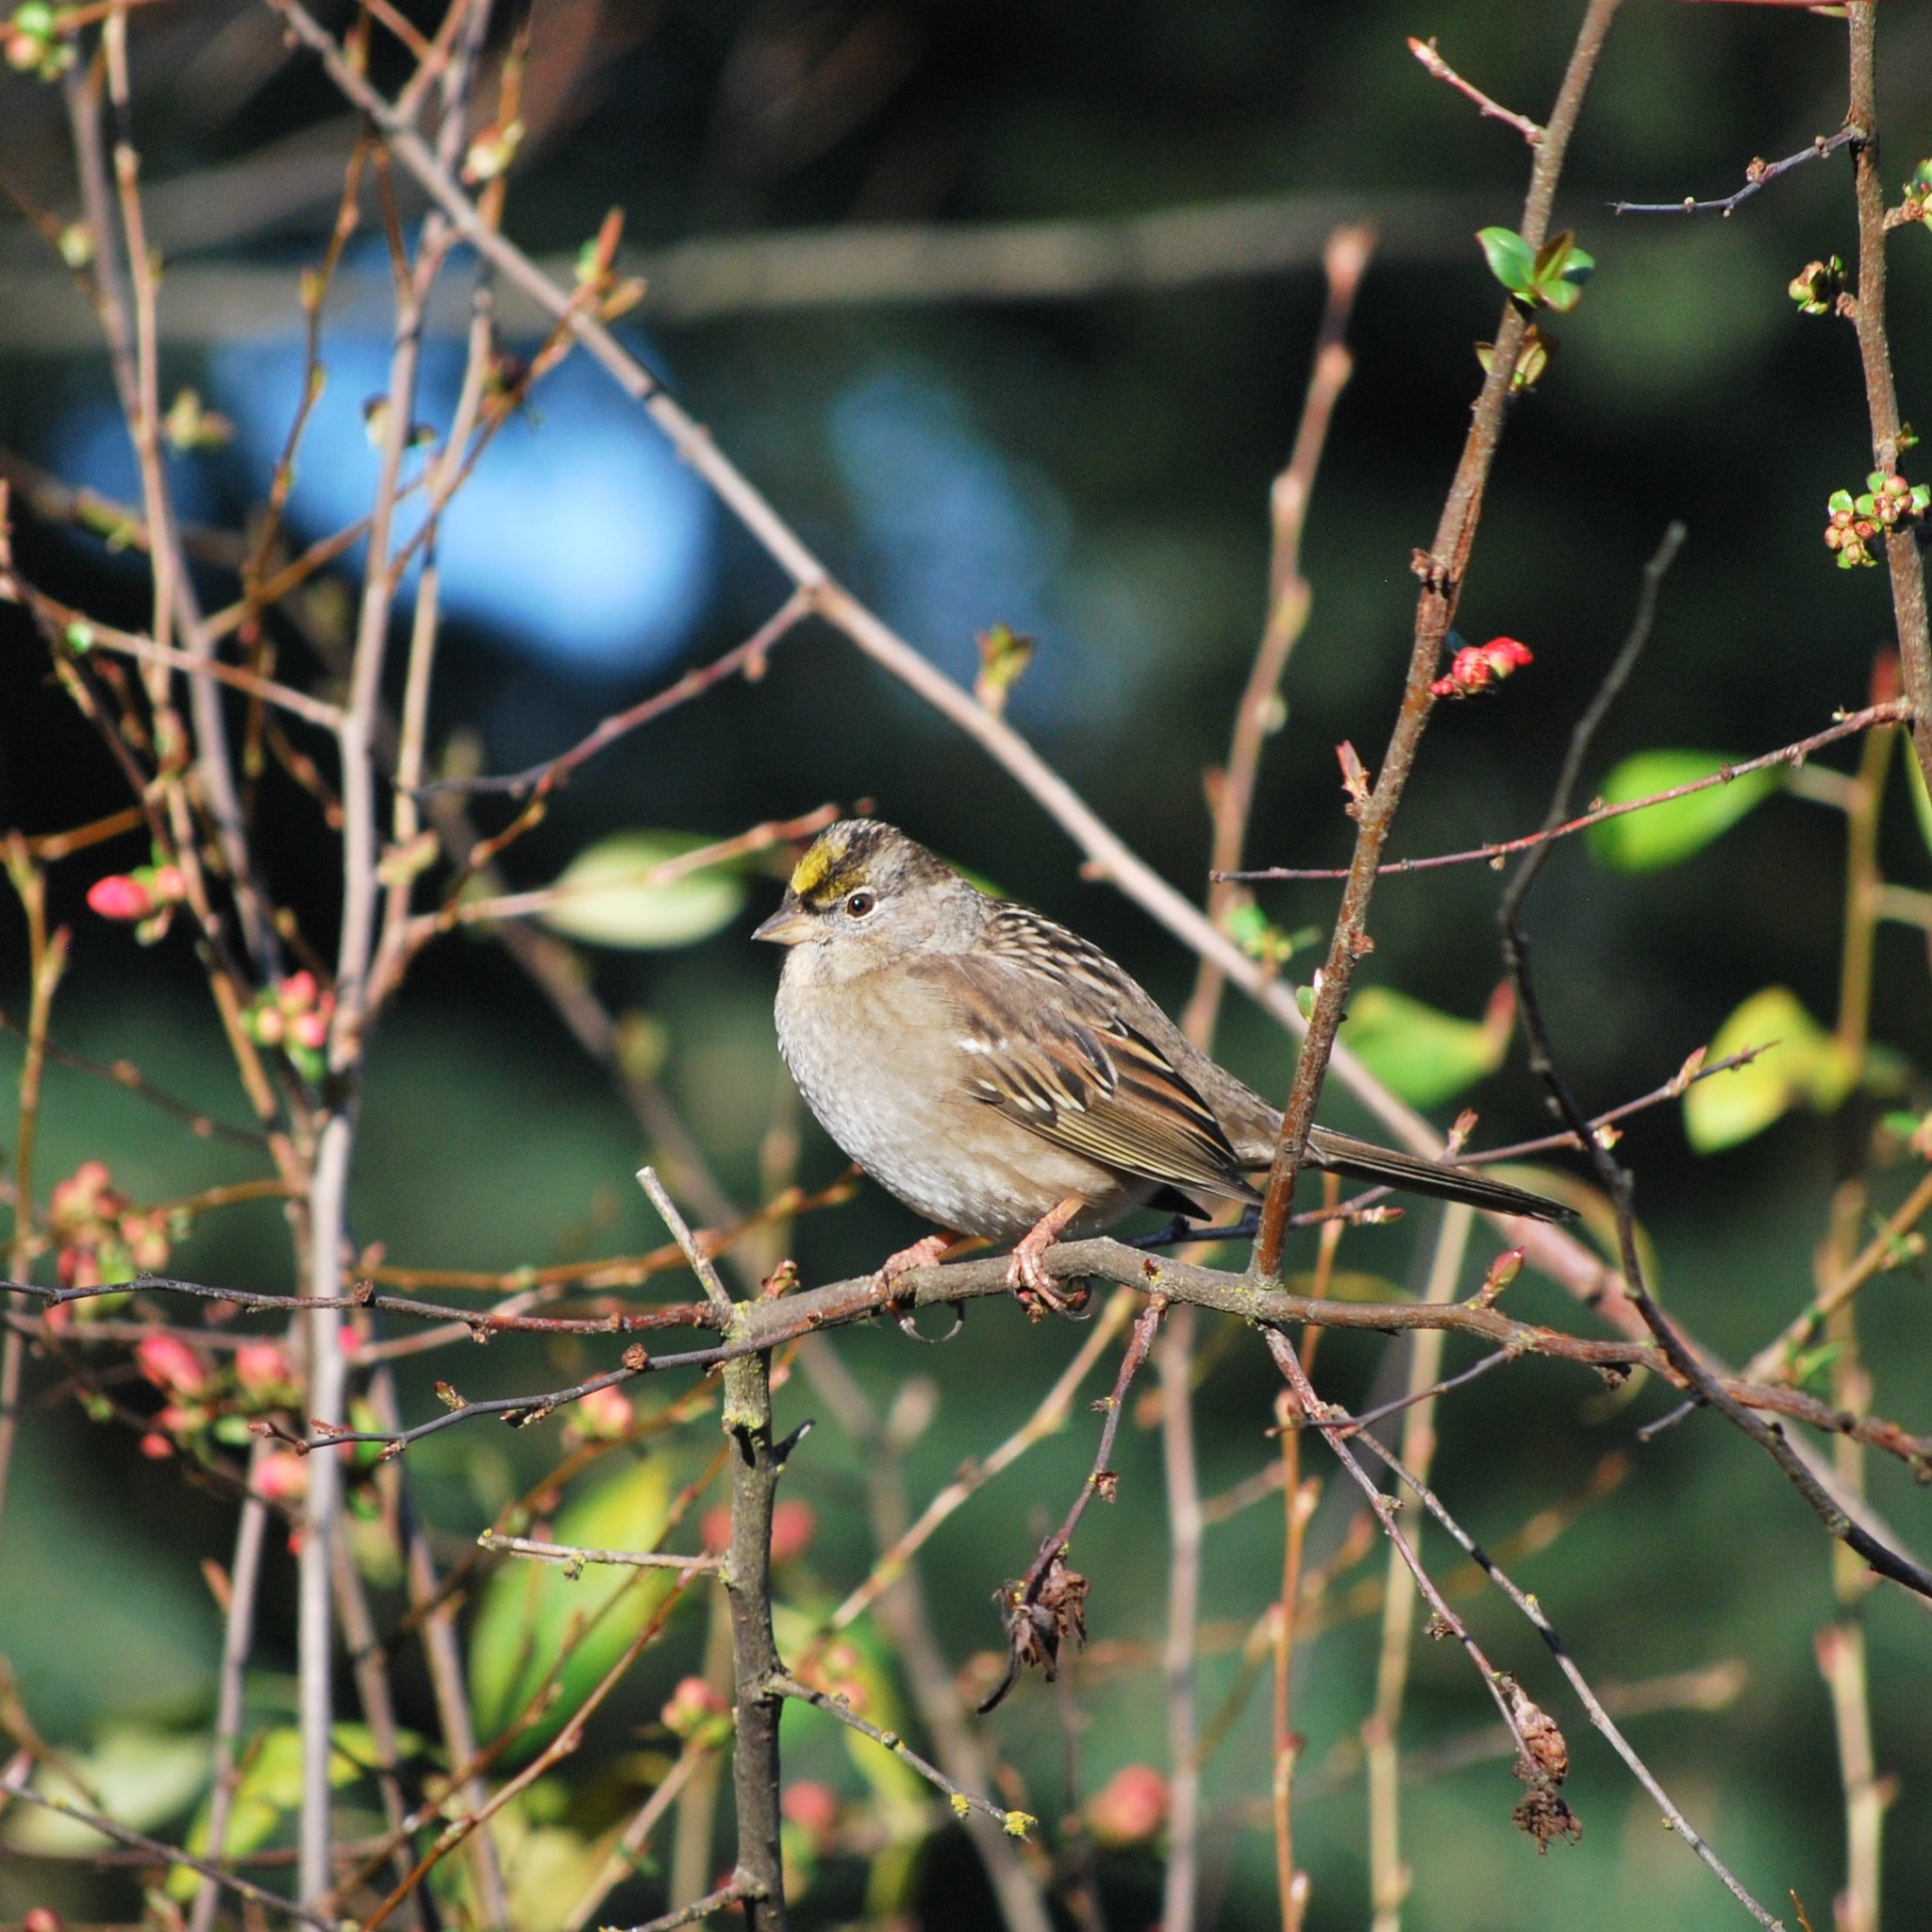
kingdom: Animalia
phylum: Chordata
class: Aves
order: Passeriformes
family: Passerellidae
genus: Zonotrichia
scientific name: Zonotrichia atricapilla
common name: Golden-crowned sparrow
